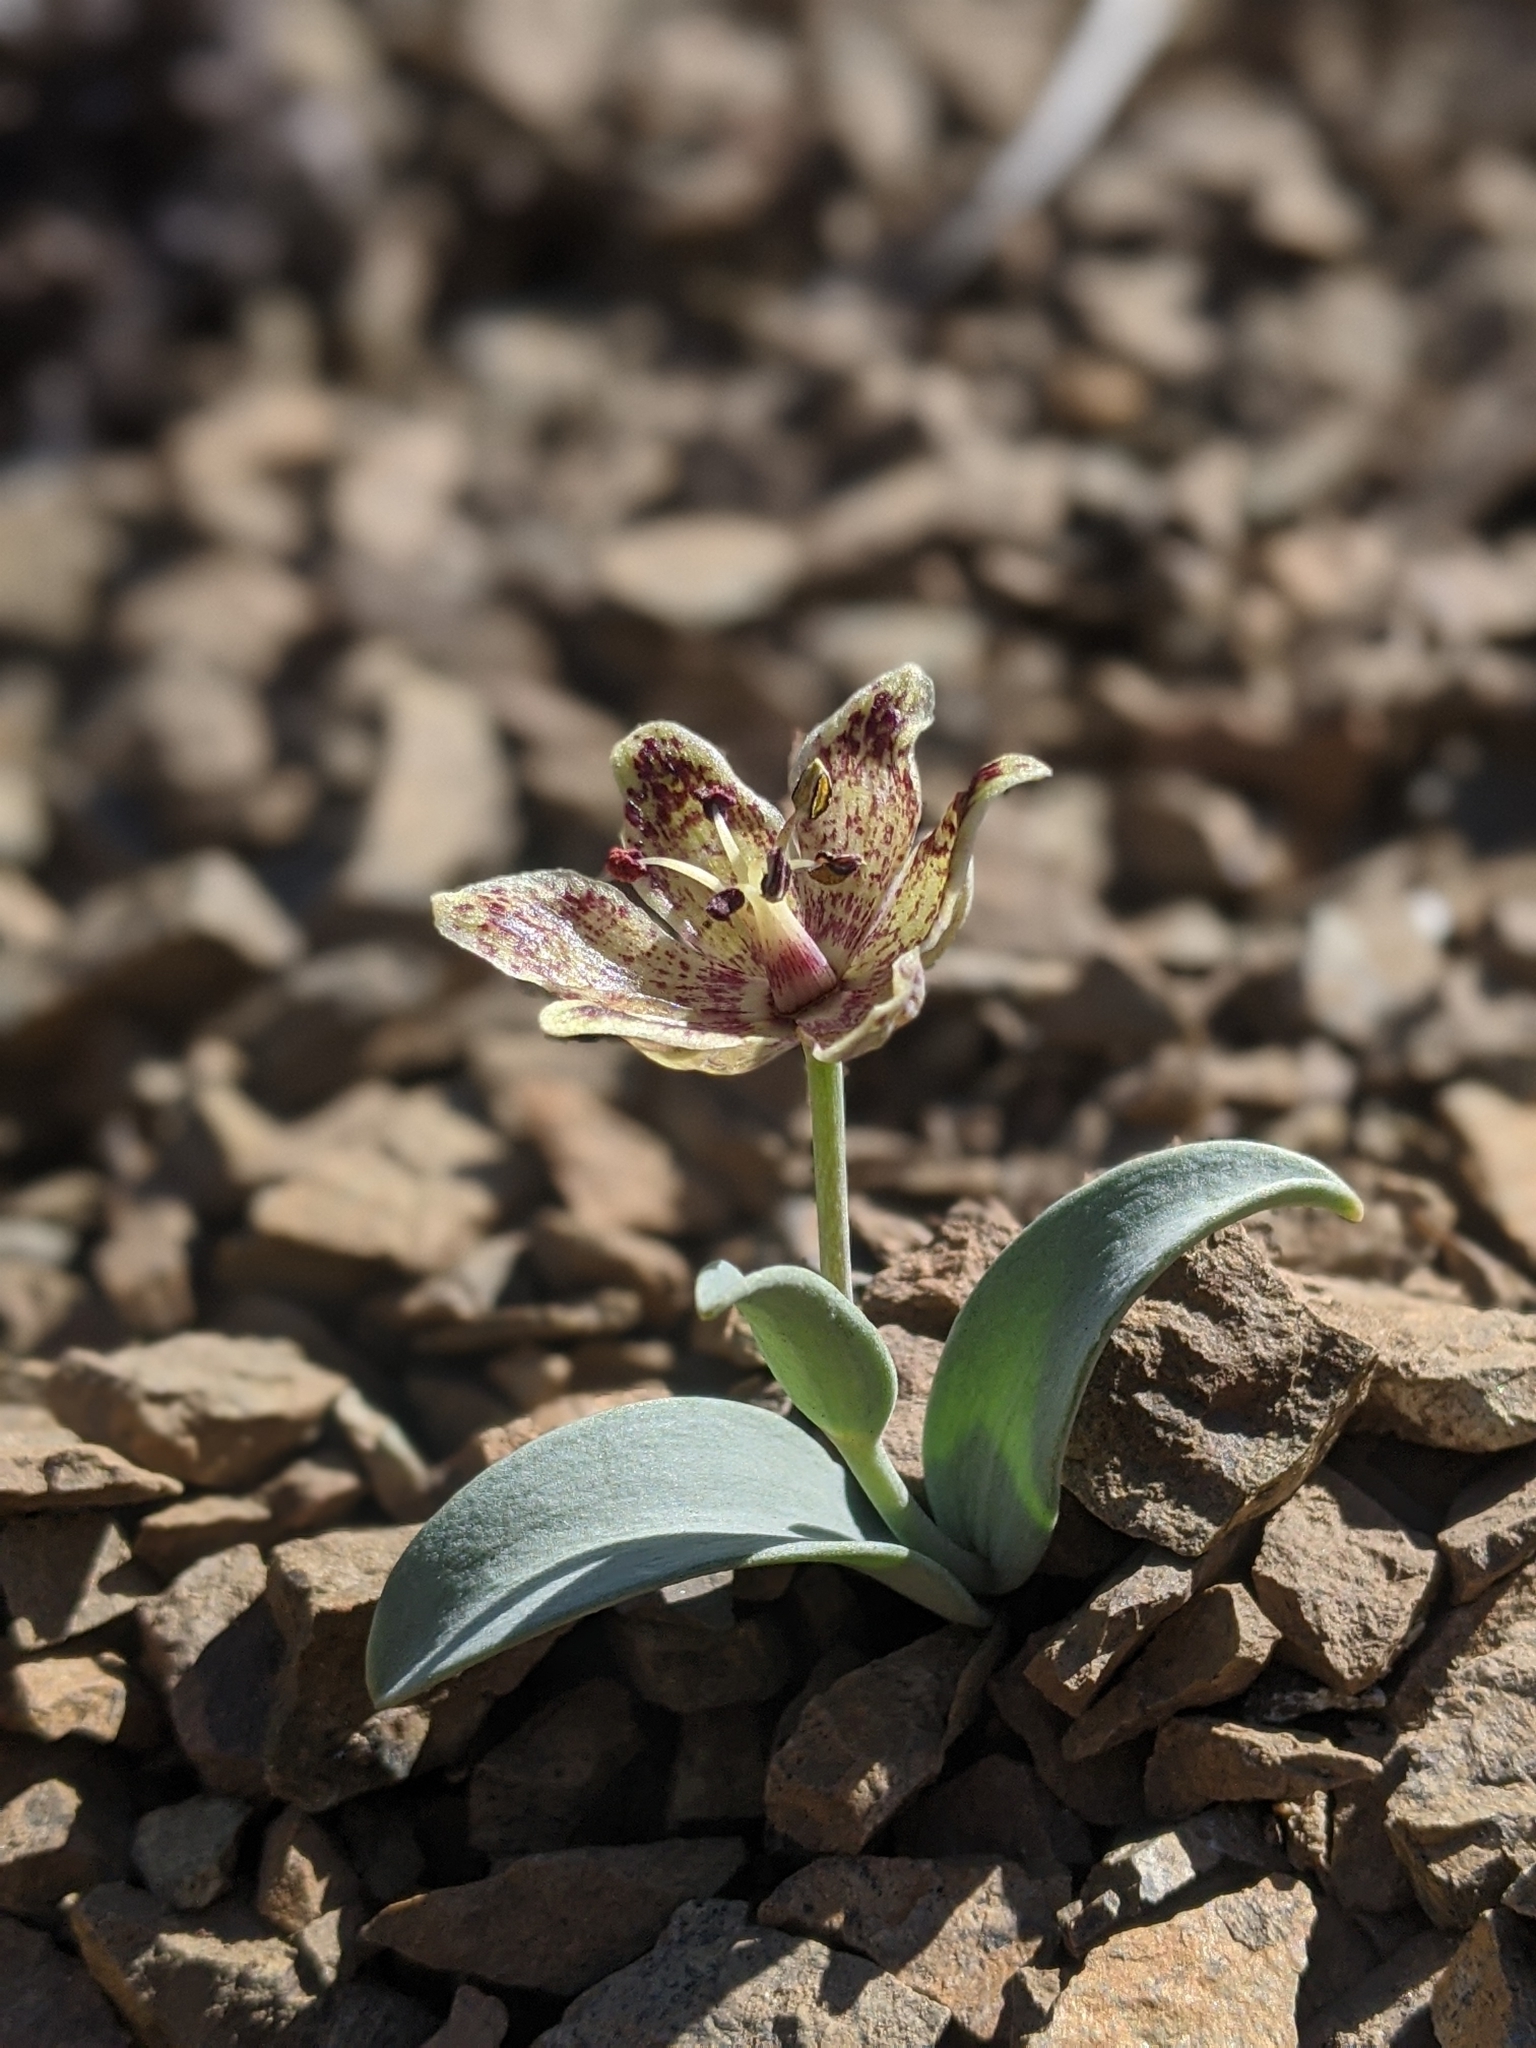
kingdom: Plantae
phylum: Tracheophyta
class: Liliopsida
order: Liliales
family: Liliaceae
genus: Fritillaria
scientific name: Fritillaria falcata
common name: Talus fritillary
